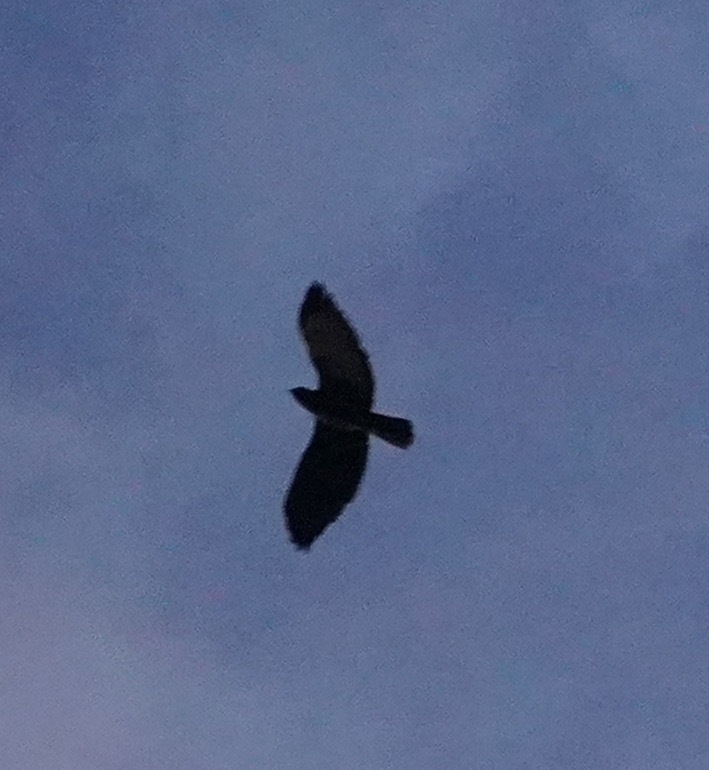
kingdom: Animalia
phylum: Chordata
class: Aves
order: Accipitriformes
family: Accipitridae
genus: Buteo
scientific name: Buteo jamaicensis
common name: Red-tailed hawk
